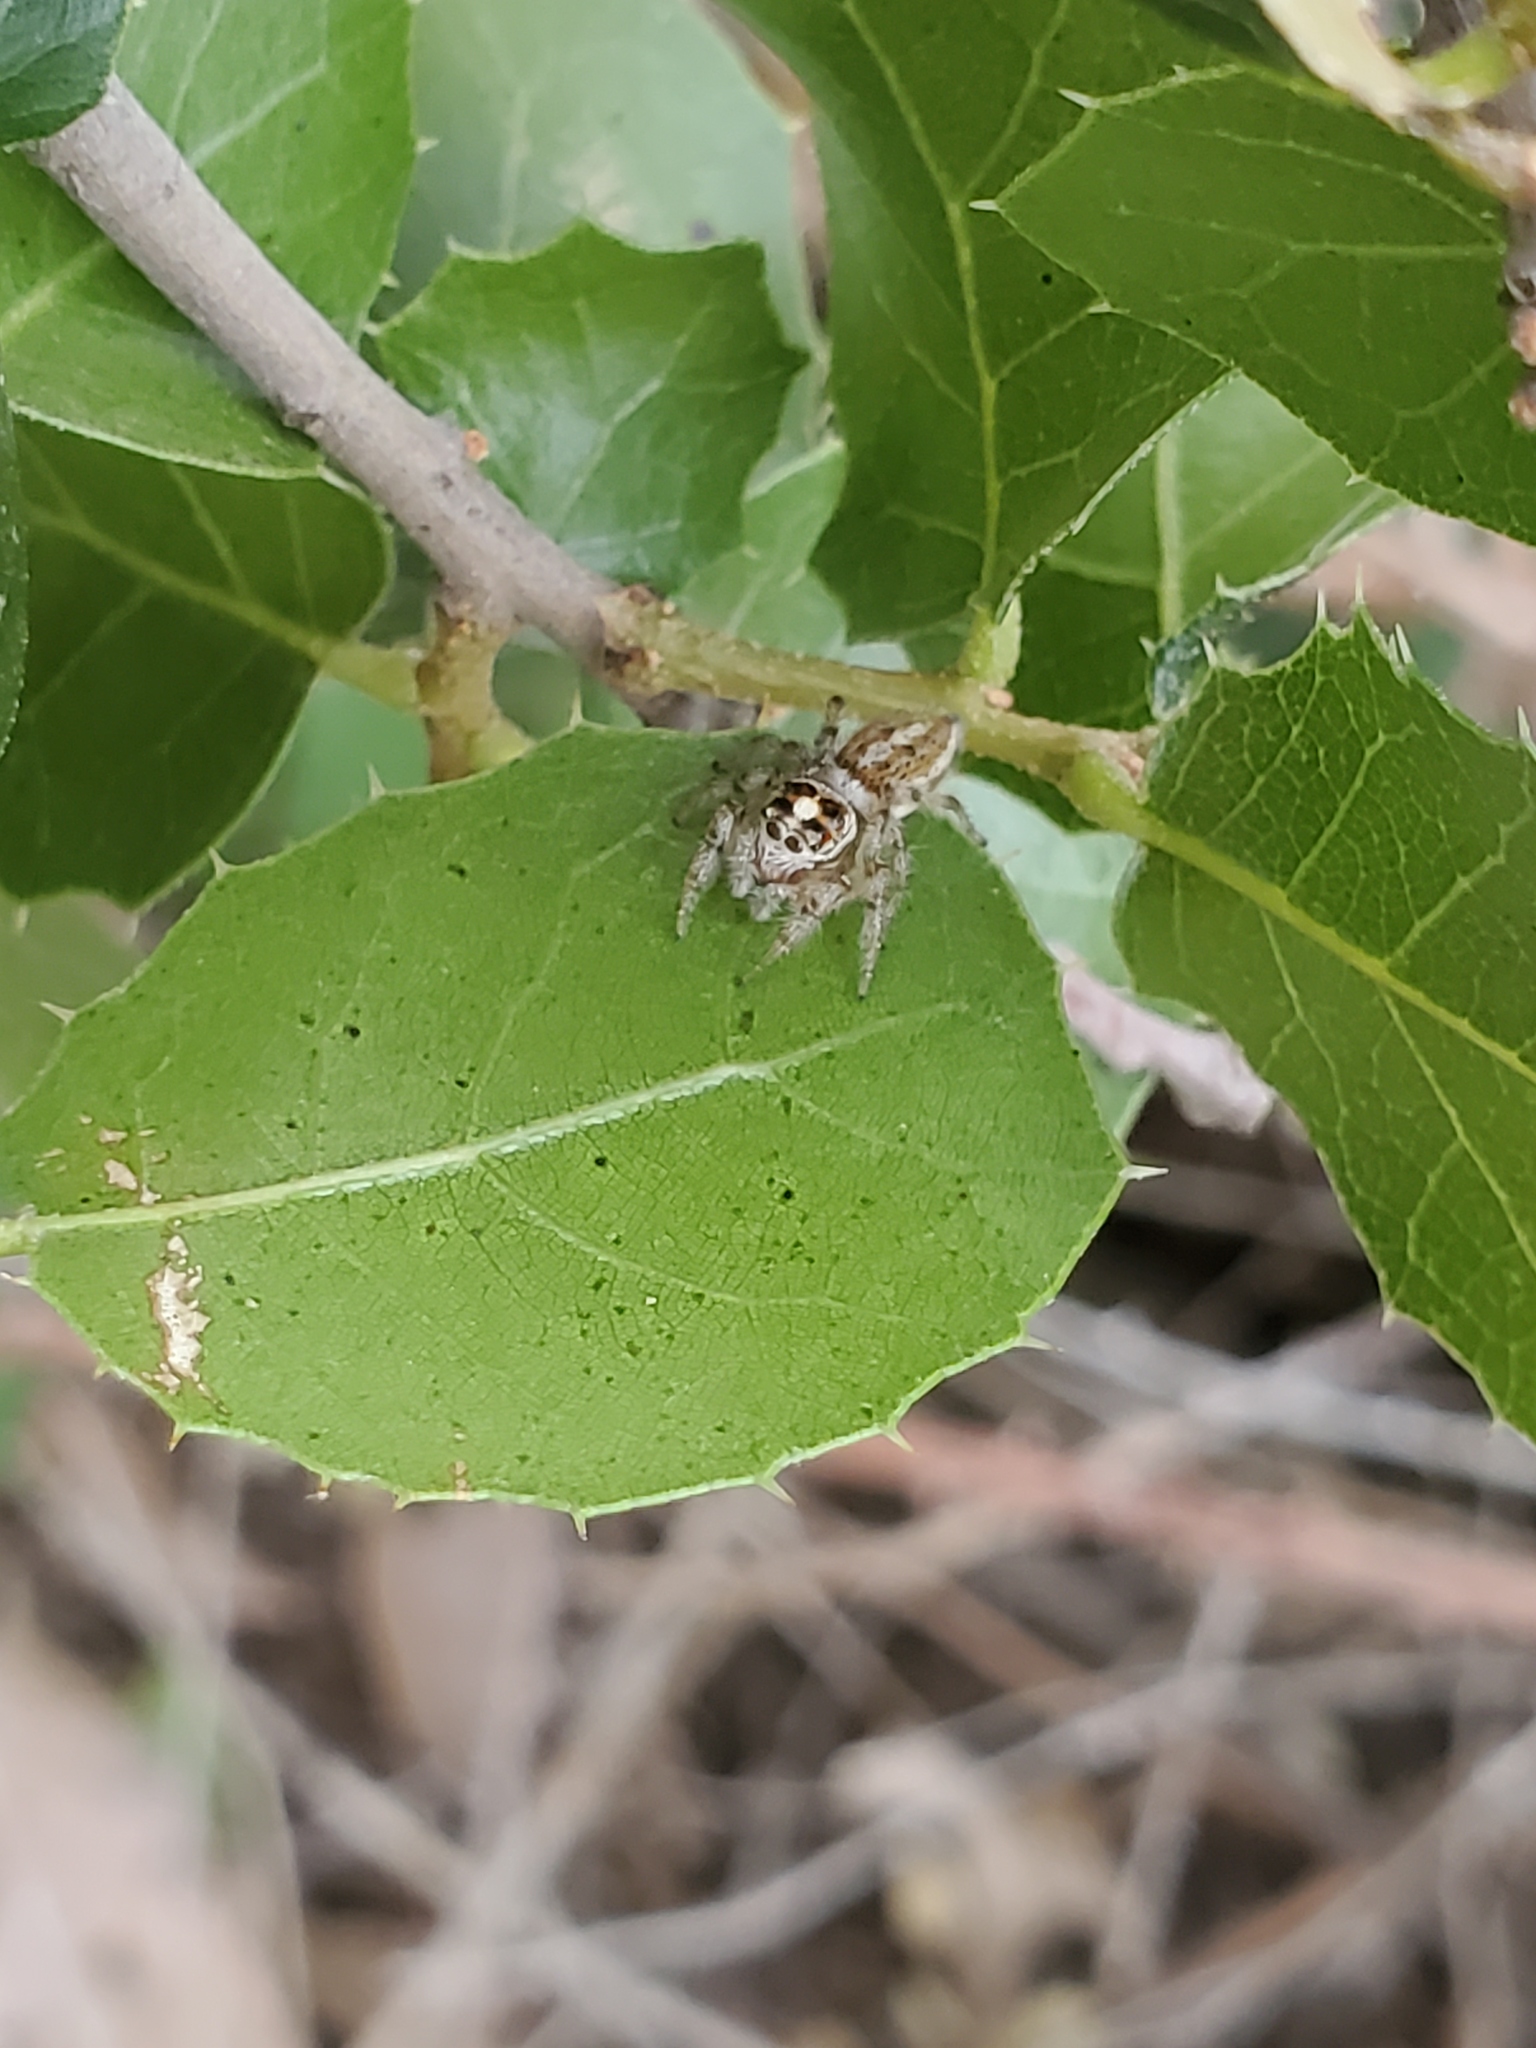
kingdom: Animalia
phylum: Arthropoda
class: Arachnida
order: Araneae
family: Salticidae
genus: Colonus
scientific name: Colonus hesperus
